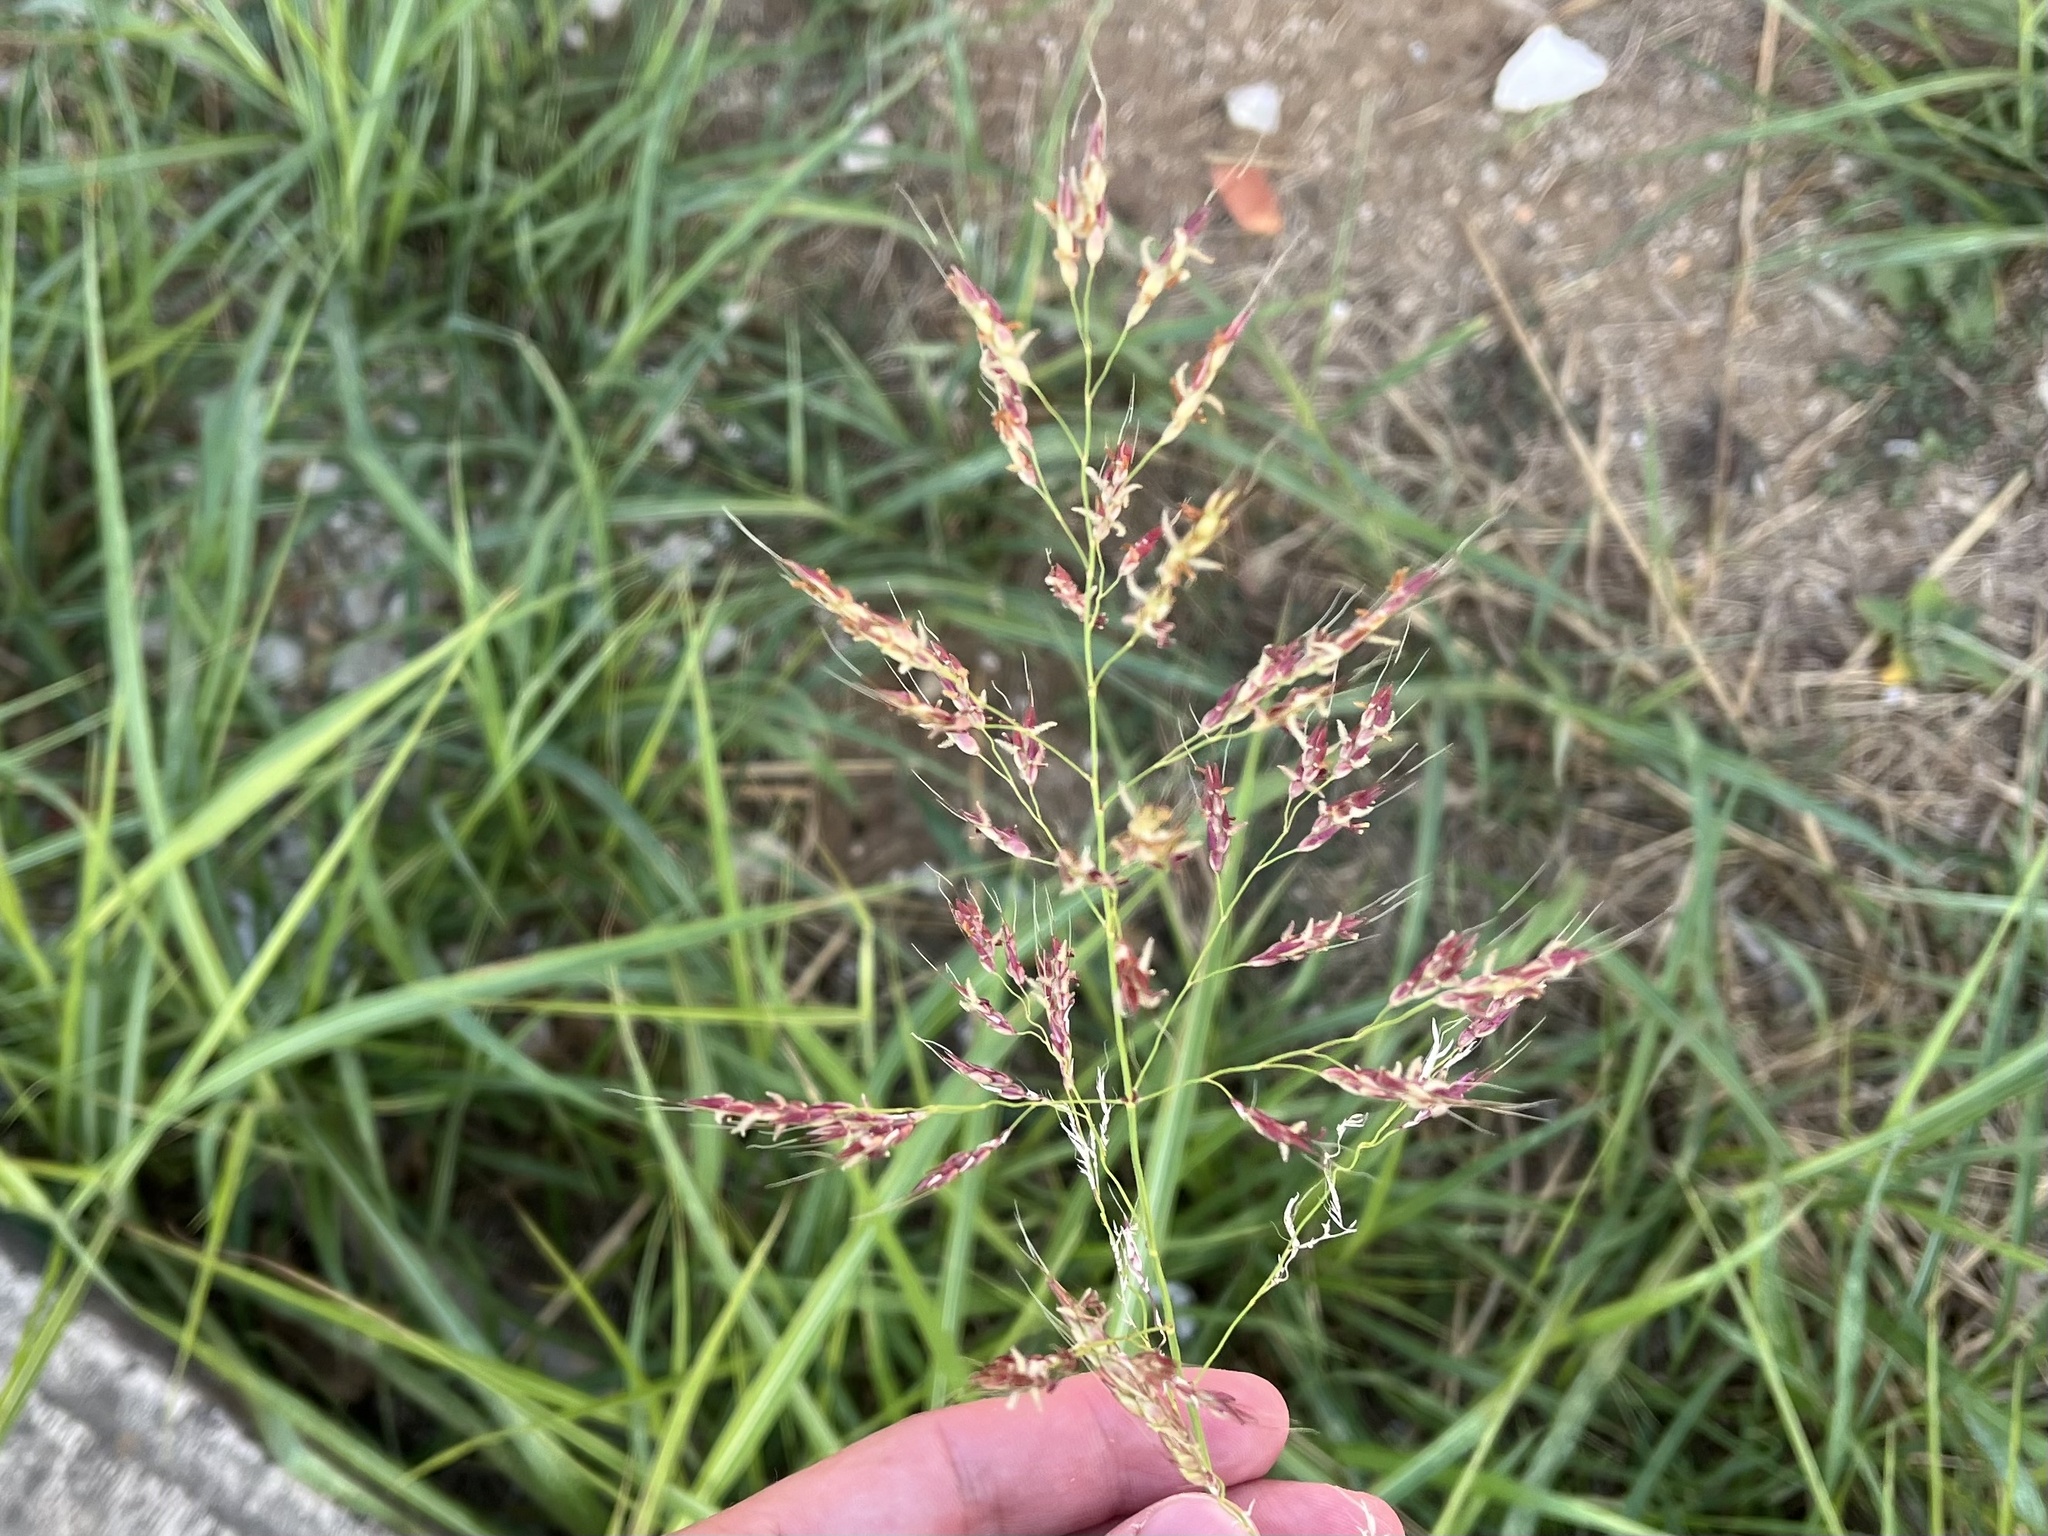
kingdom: Plantae
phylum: Tracheophyta
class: Liliopsida
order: Poales
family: Poaceae
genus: Sorghum
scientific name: Sorghum halepense
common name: Johnson-grass
